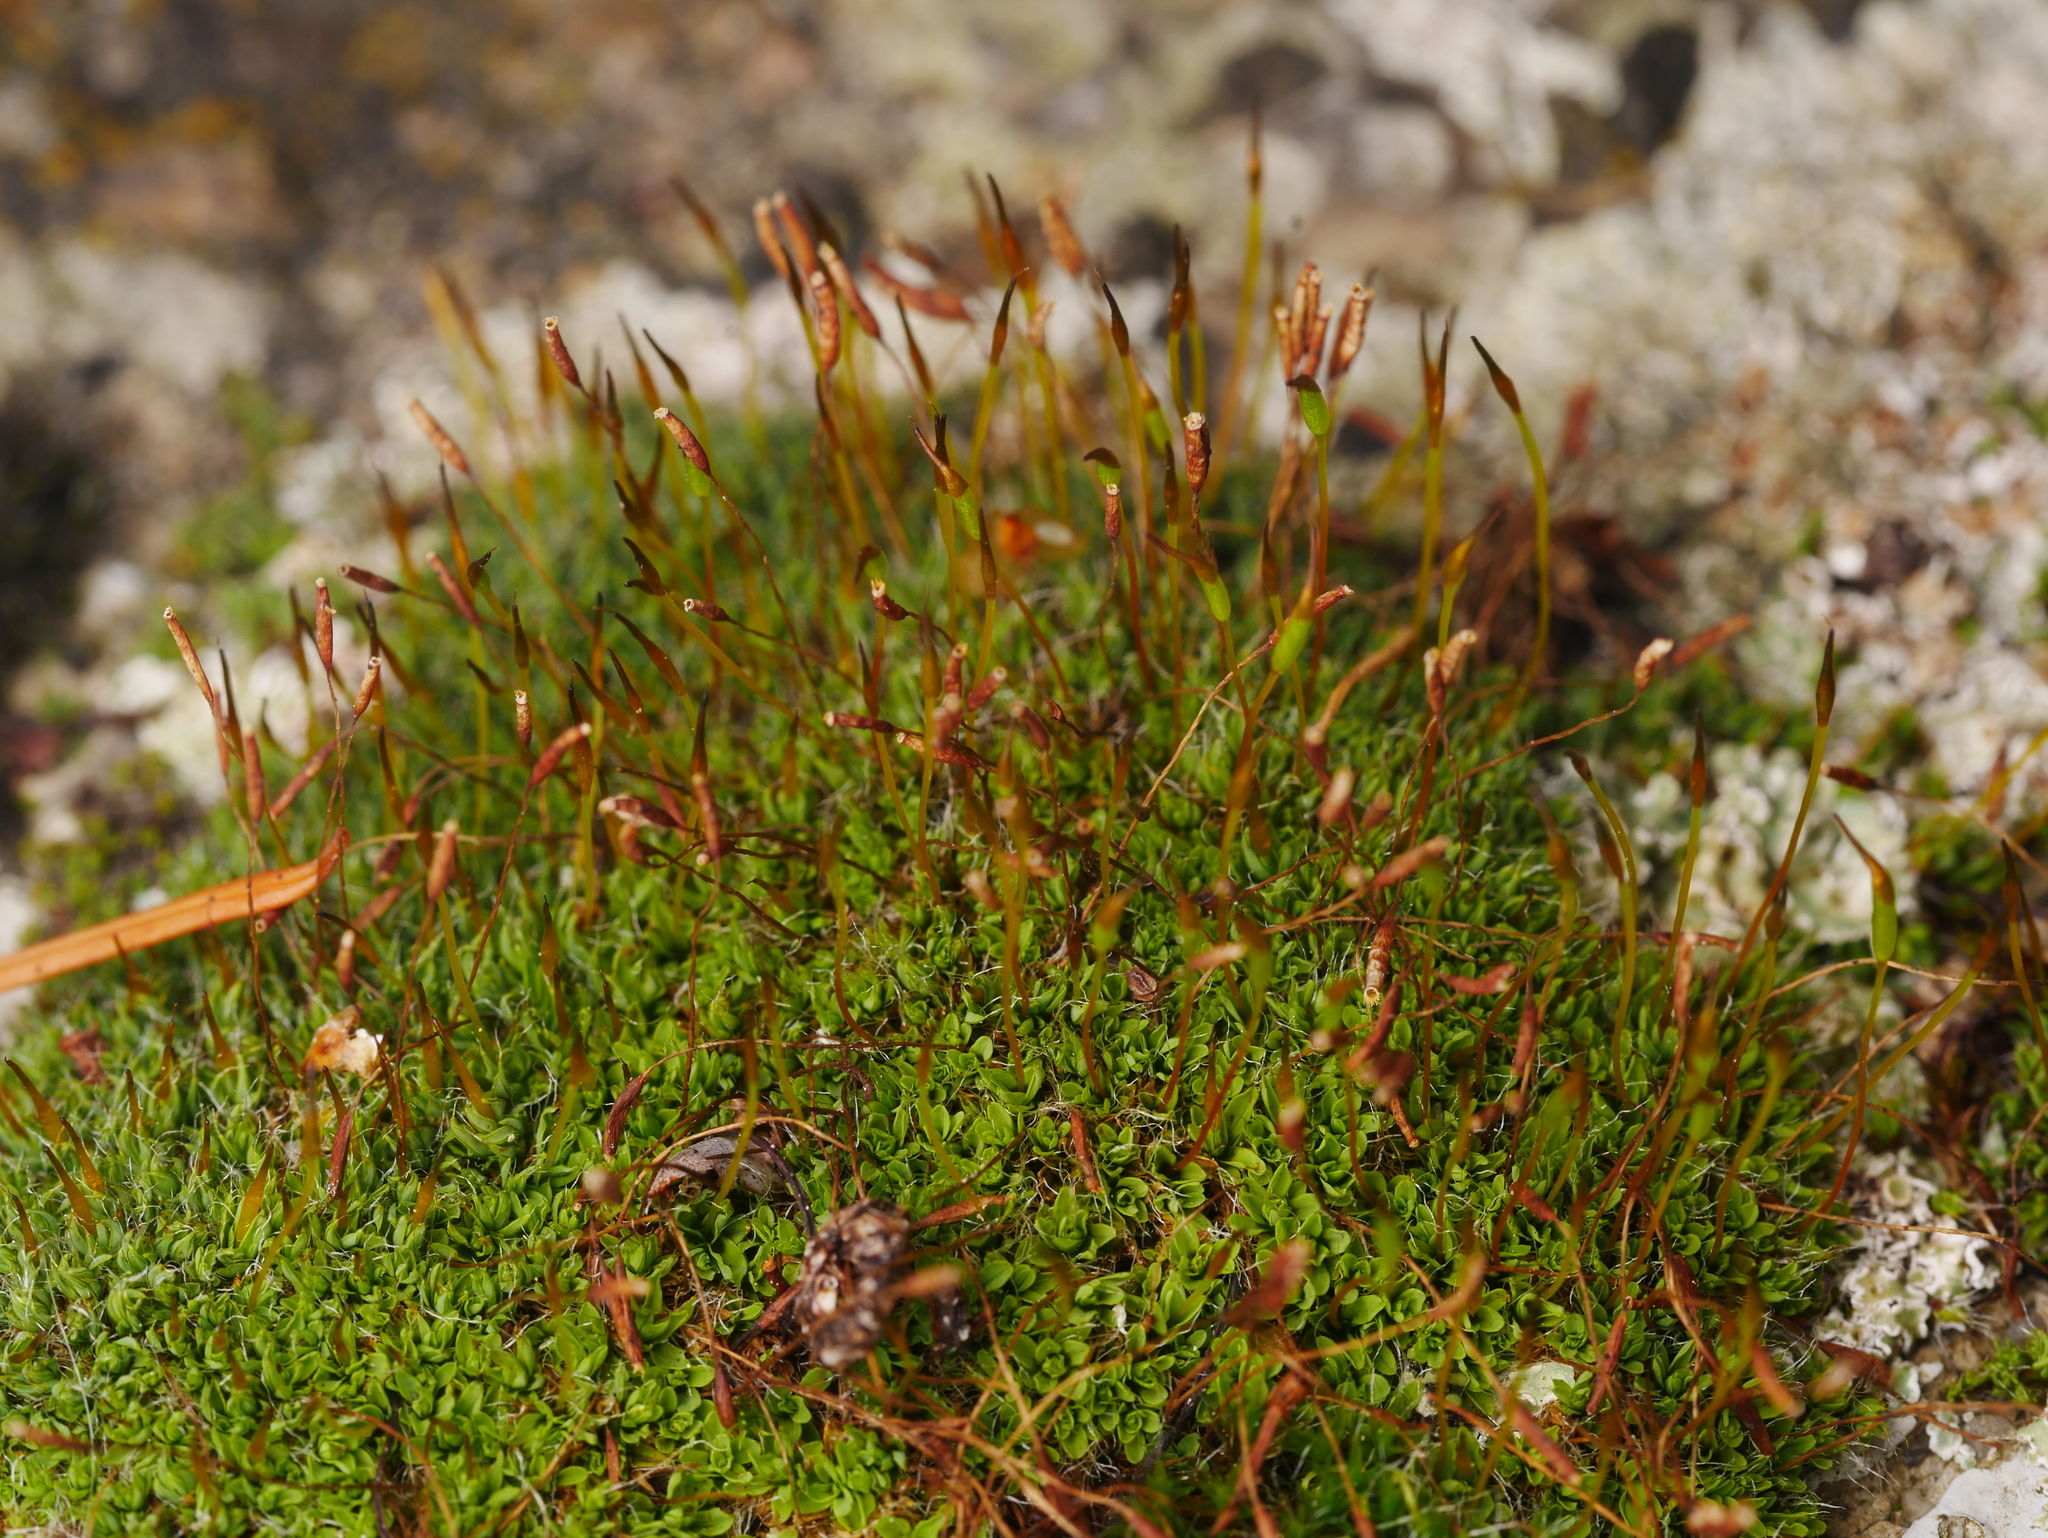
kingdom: Plantae
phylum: Bryophyta
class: Bryopsida
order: Pottiales
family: Pottiaceae
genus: Tortula
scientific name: Tortula muralis
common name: Wall screw-moss
